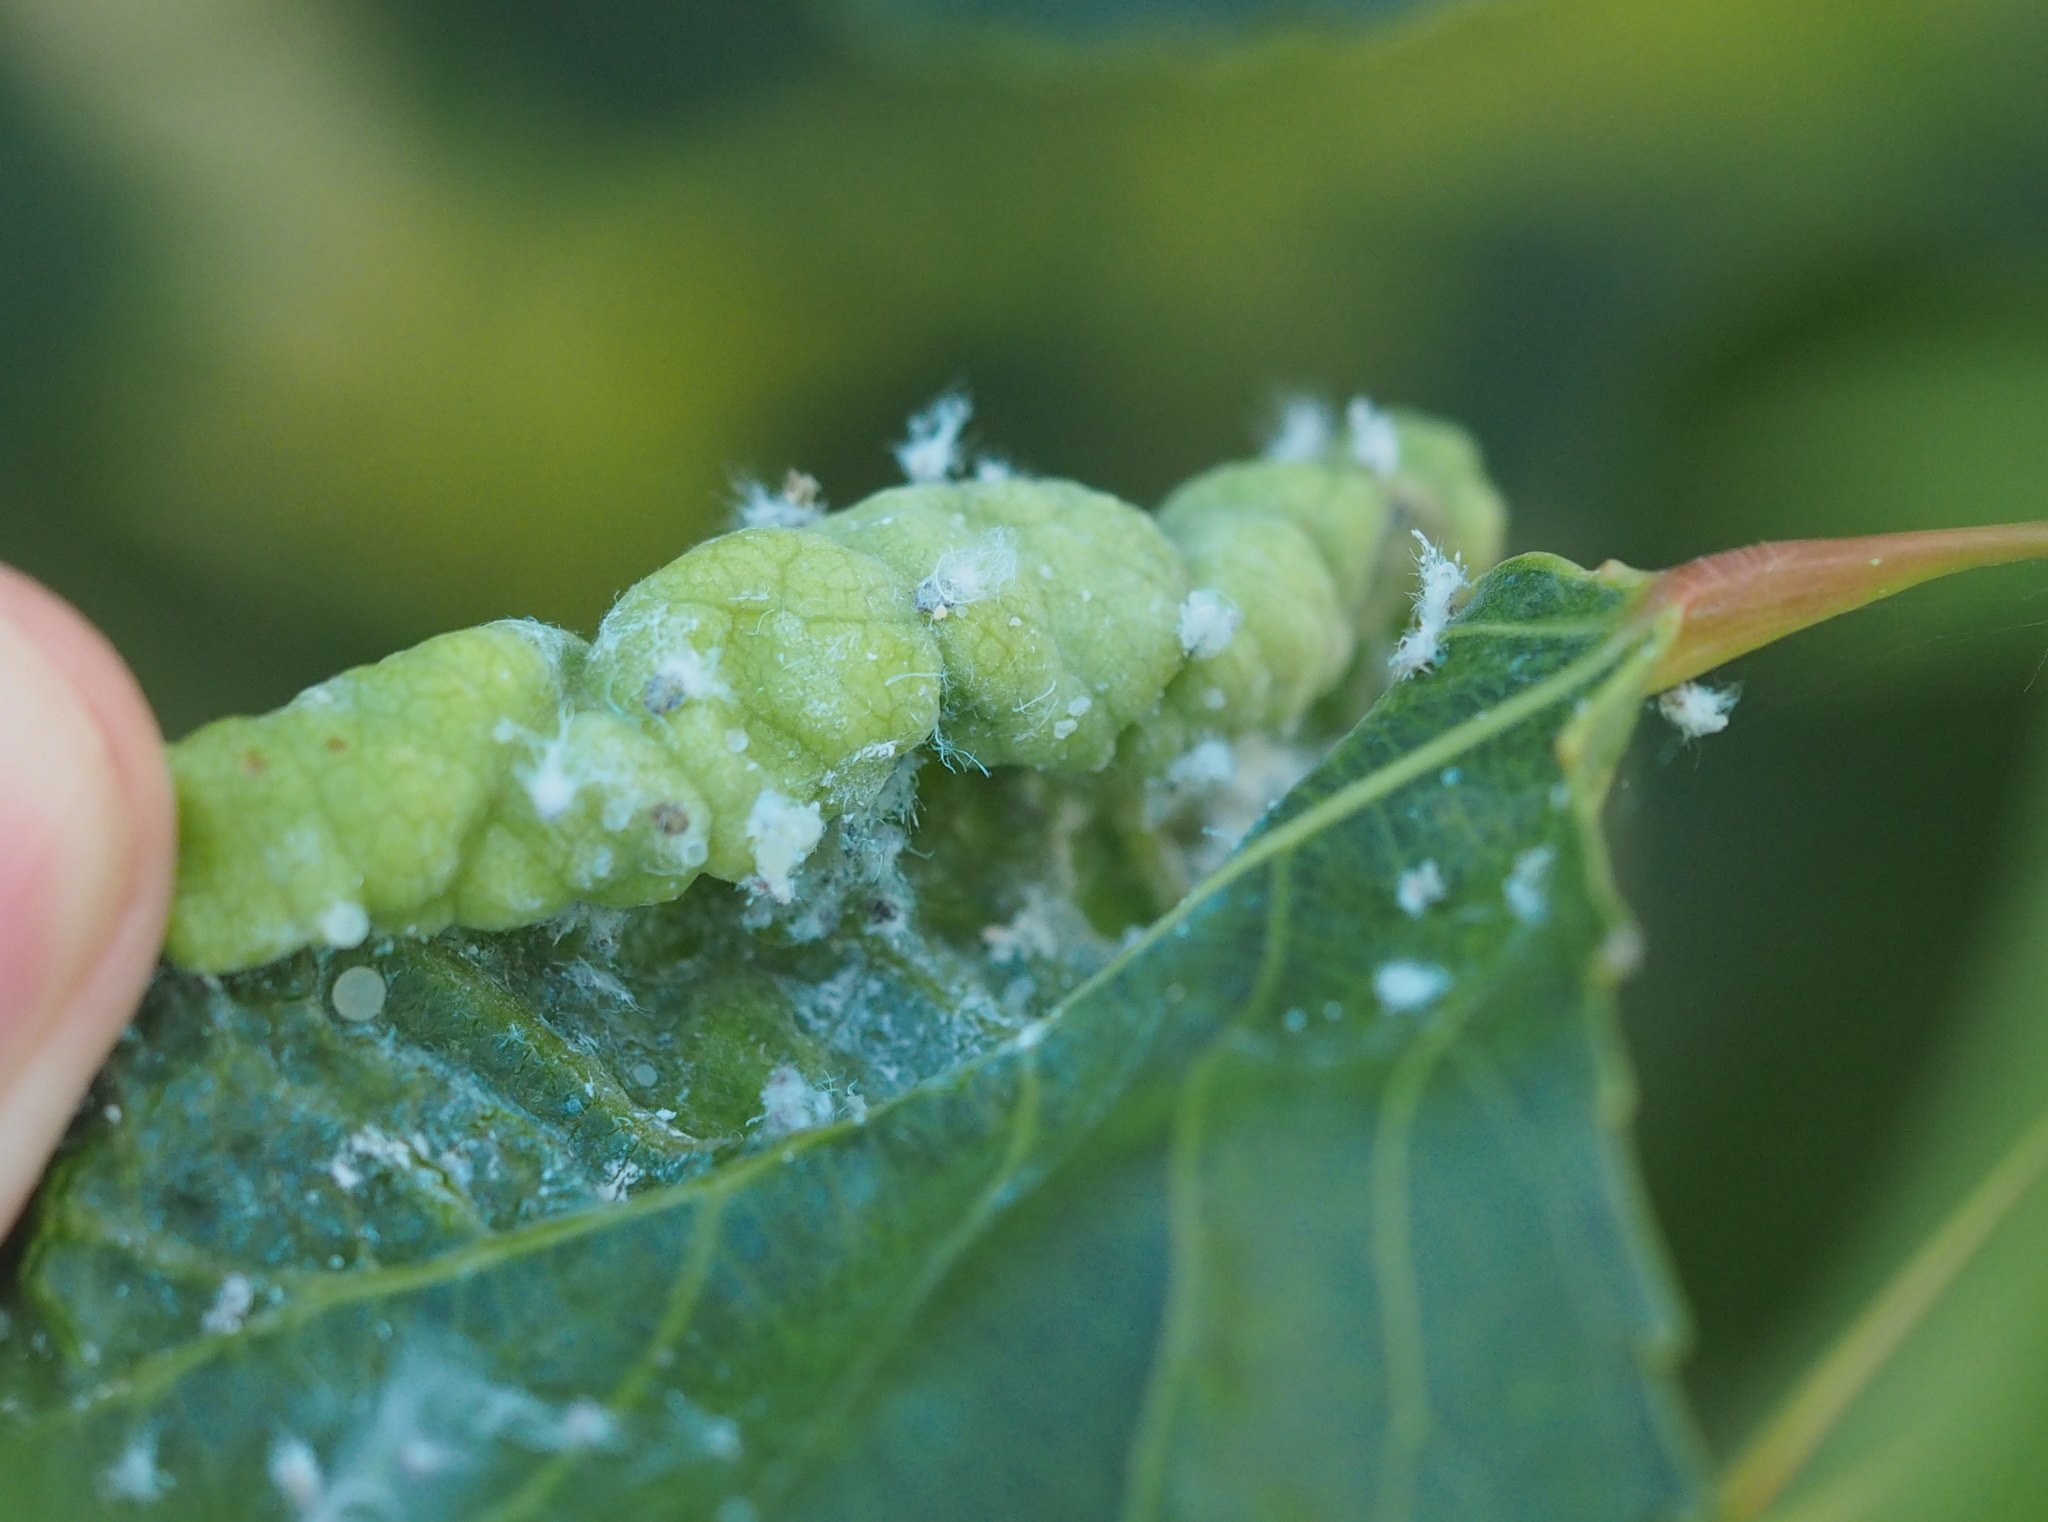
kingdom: Animalia
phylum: Arthropoda
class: Insecta
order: Hemiptera
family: Liviidae
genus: Camarotoscena
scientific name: Camarotoscena speciosa
